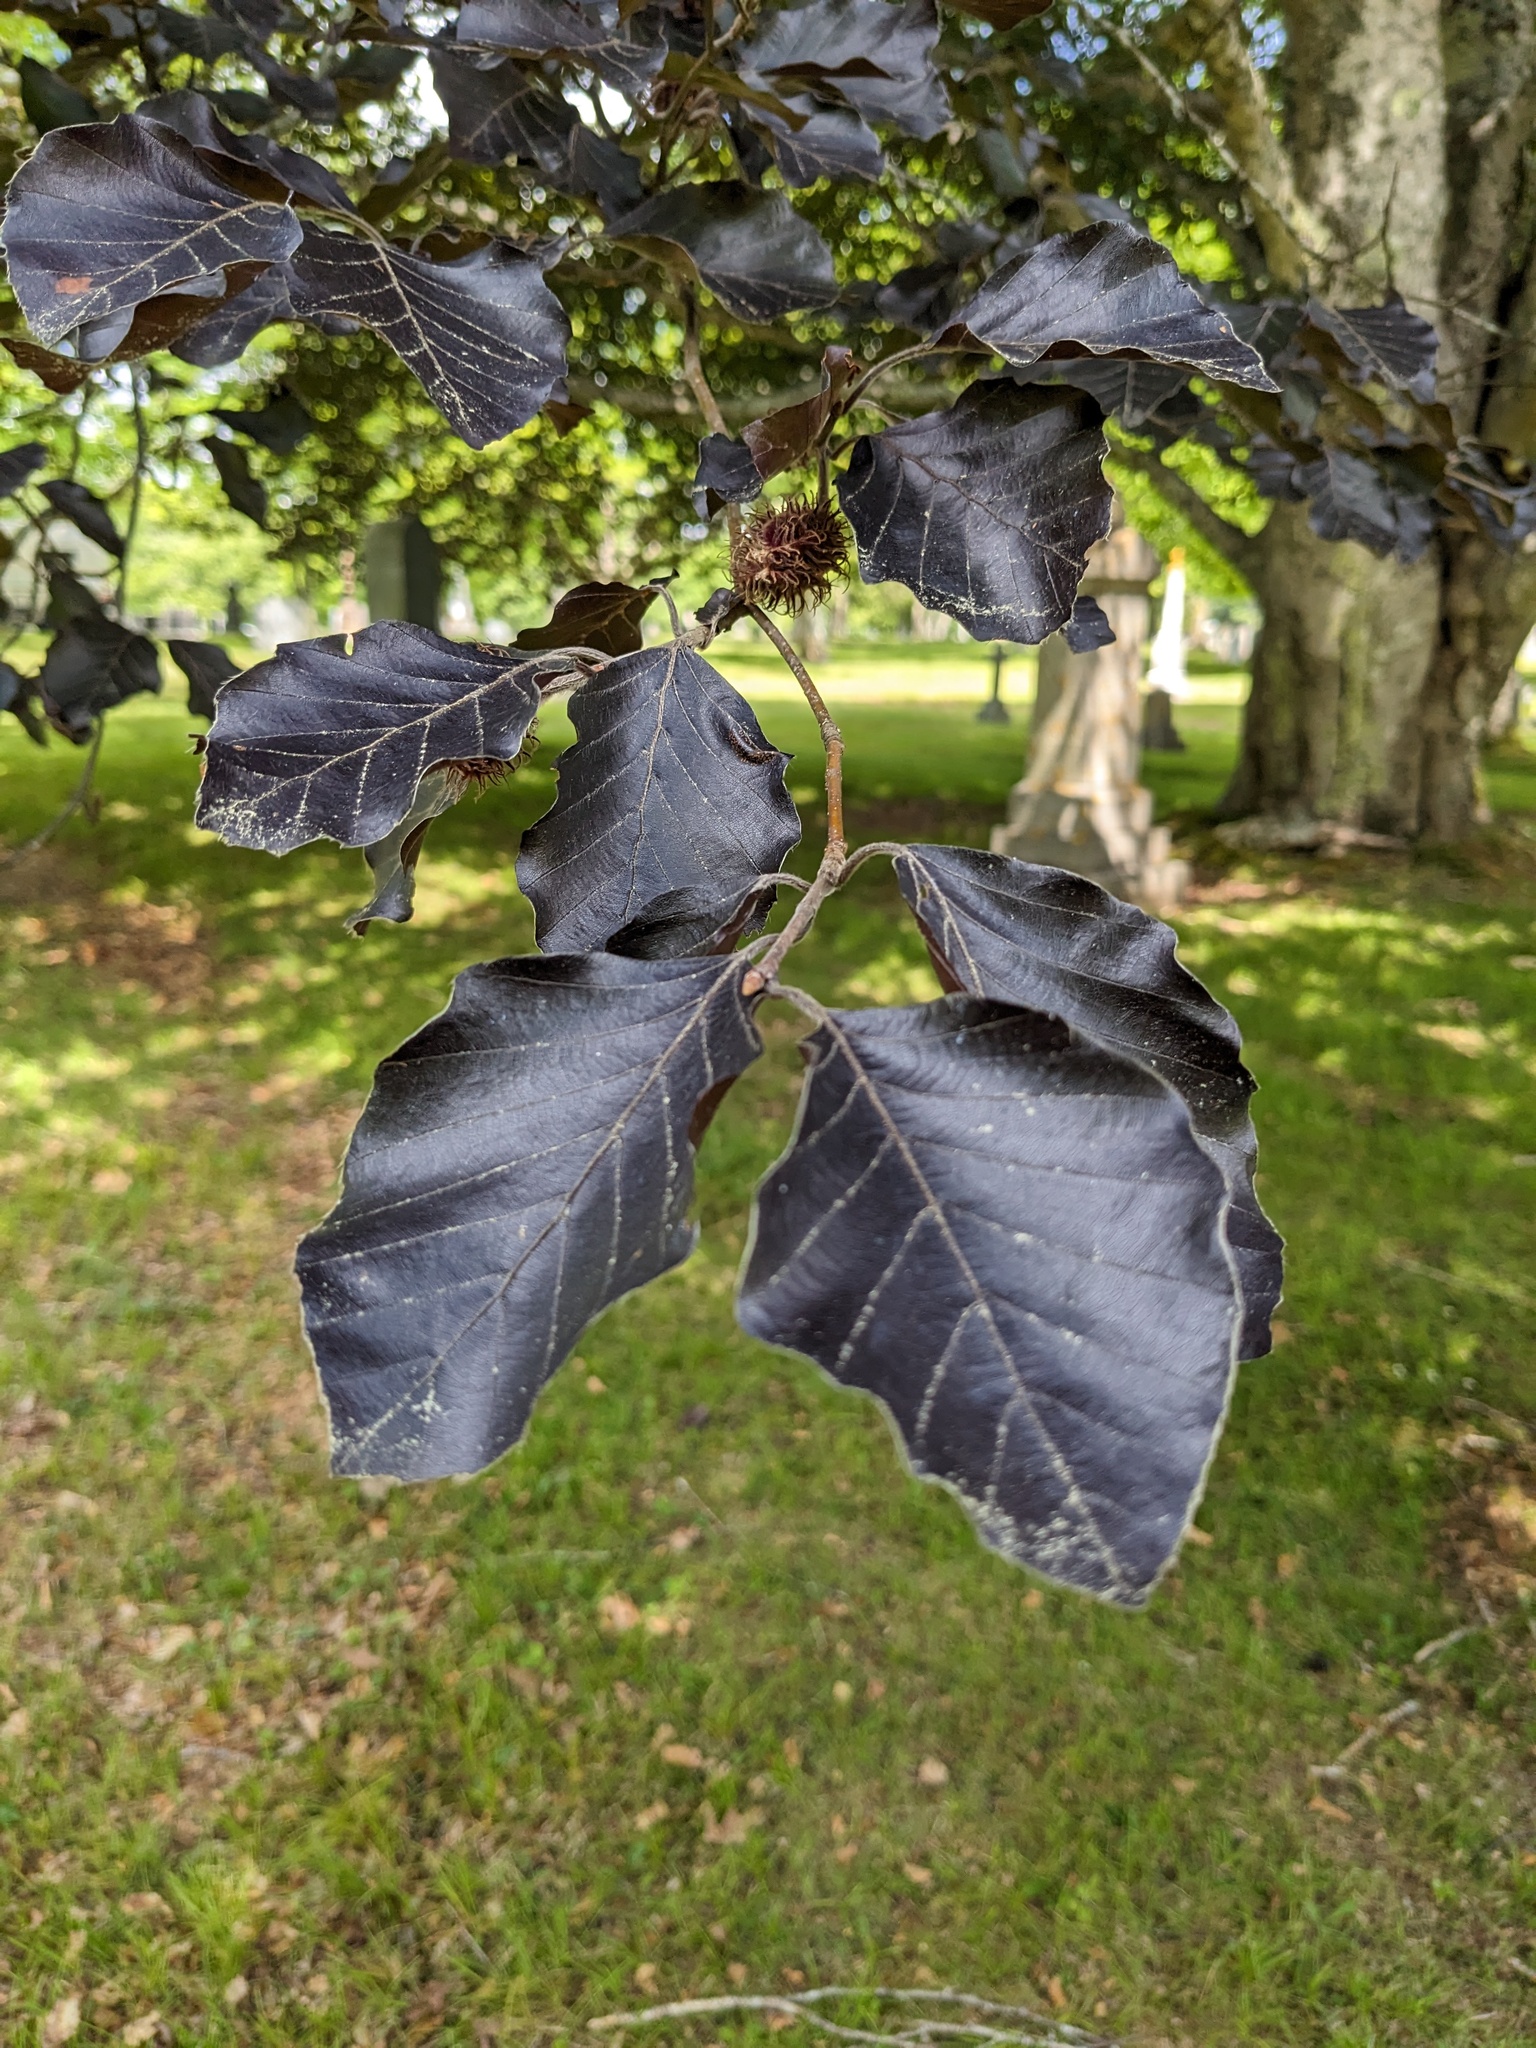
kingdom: Plantae
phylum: Tracheophyta
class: Magnoliopsida
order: Fagales
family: Fagaceae
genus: Fagus
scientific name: Fagus sylvatica
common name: Beech
